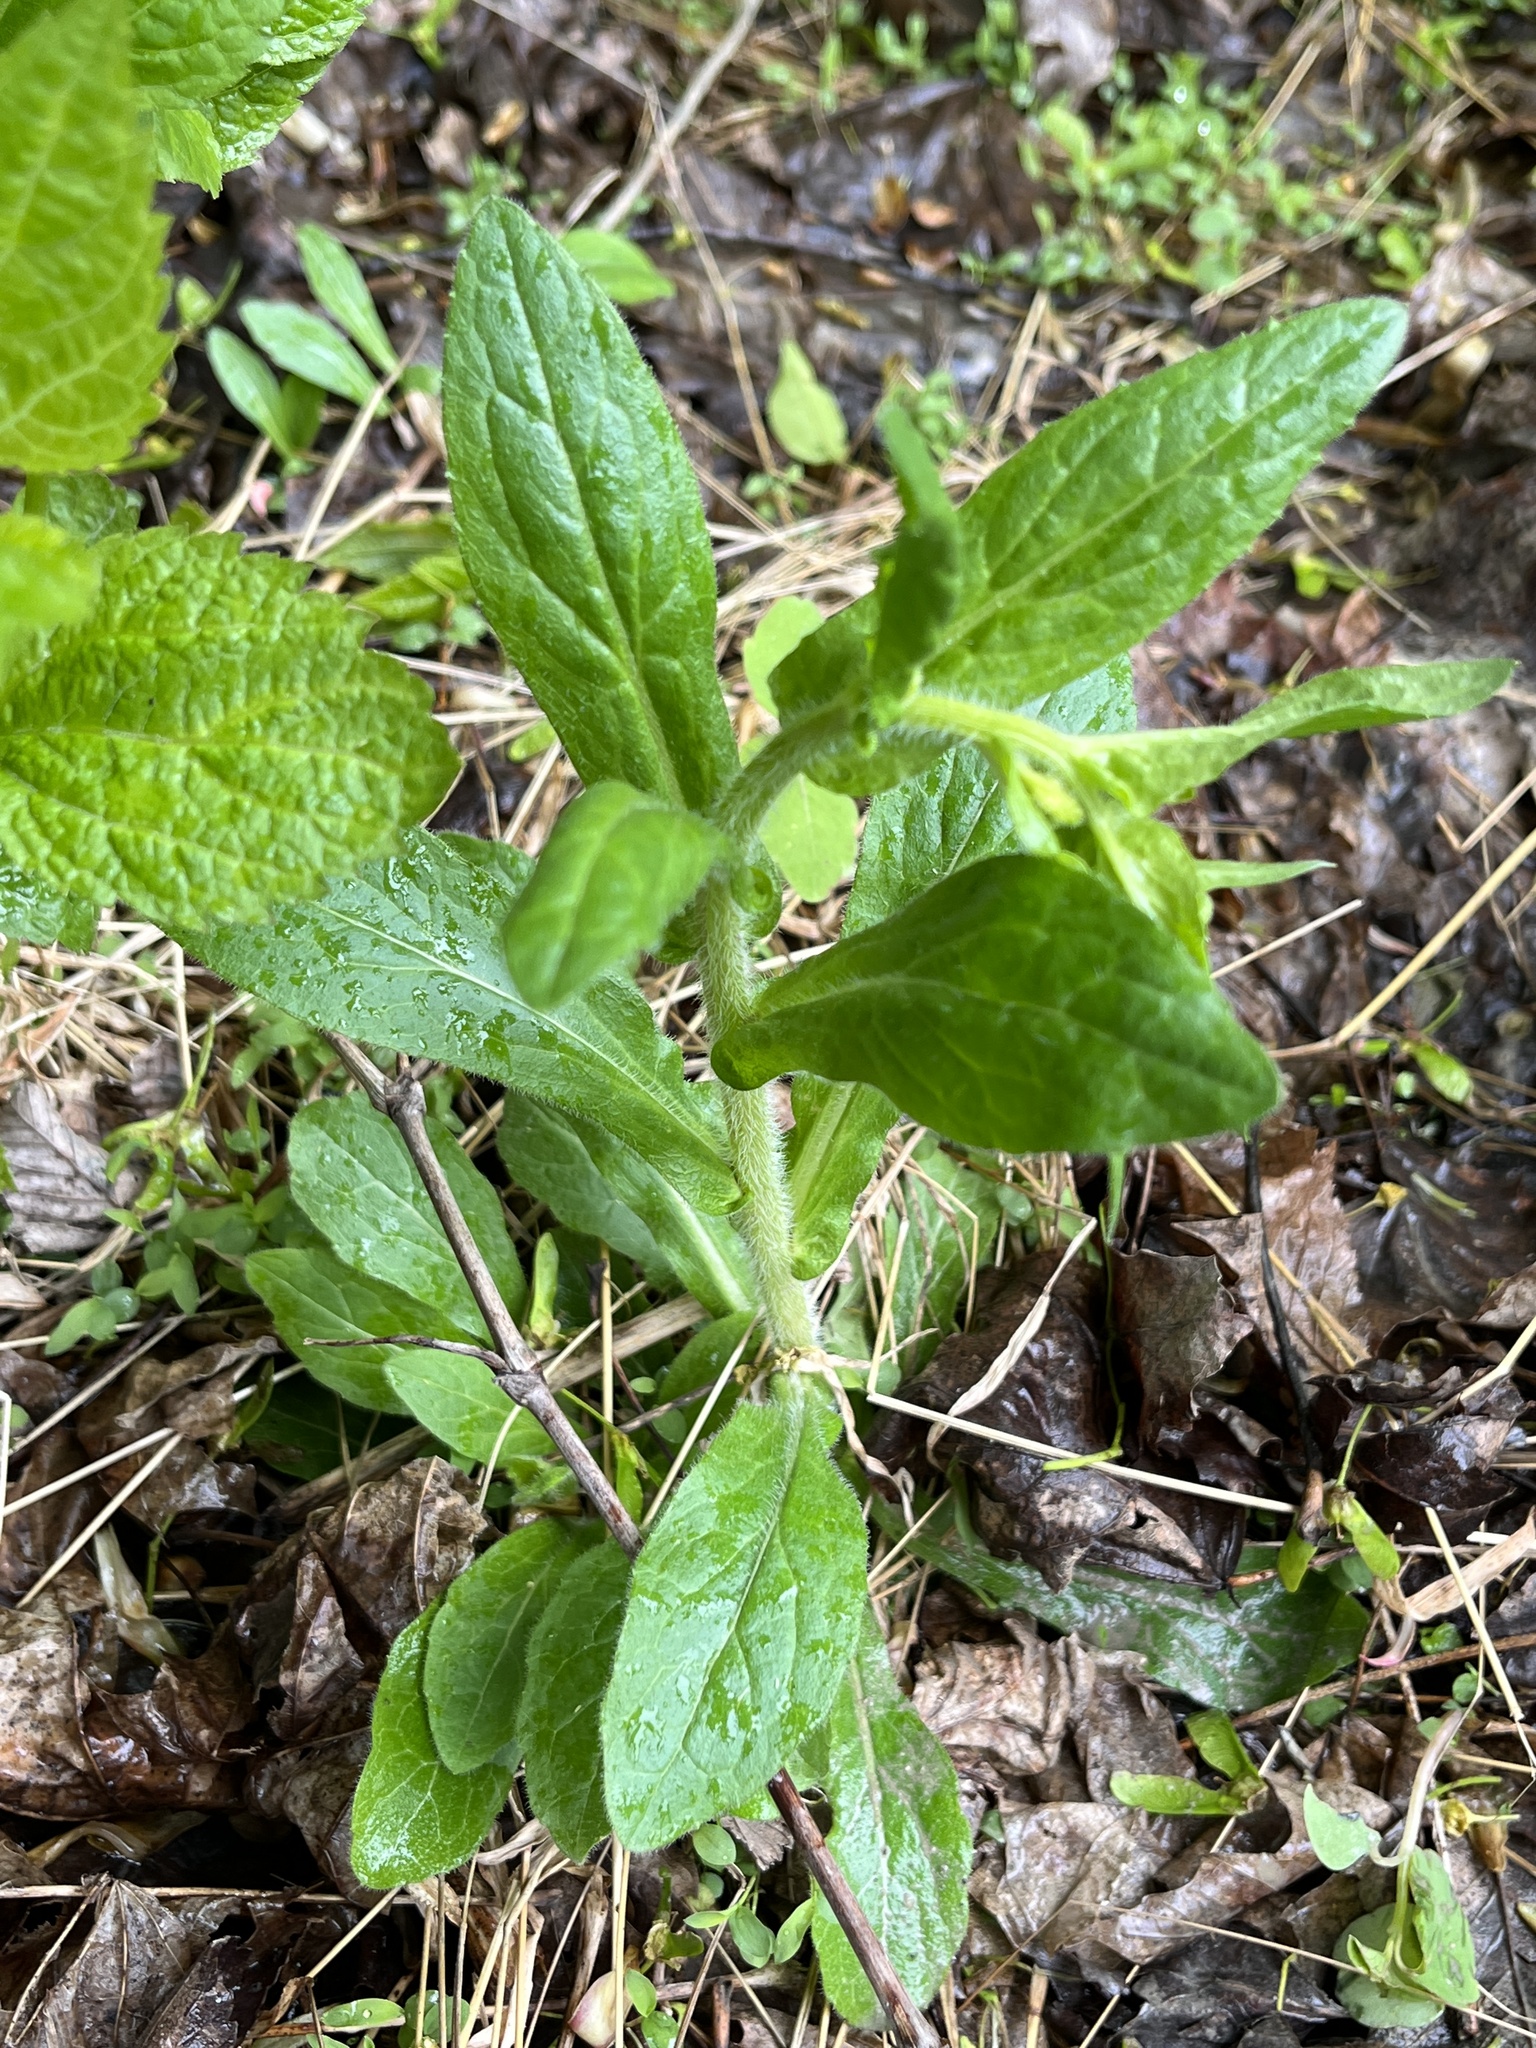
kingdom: Plantae
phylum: Tracheophyta
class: Magnoliopsida
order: Asterales
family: Asteraceae
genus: Erigeron
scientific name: Erigeron philadelphicus
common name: Robin's-plantain
